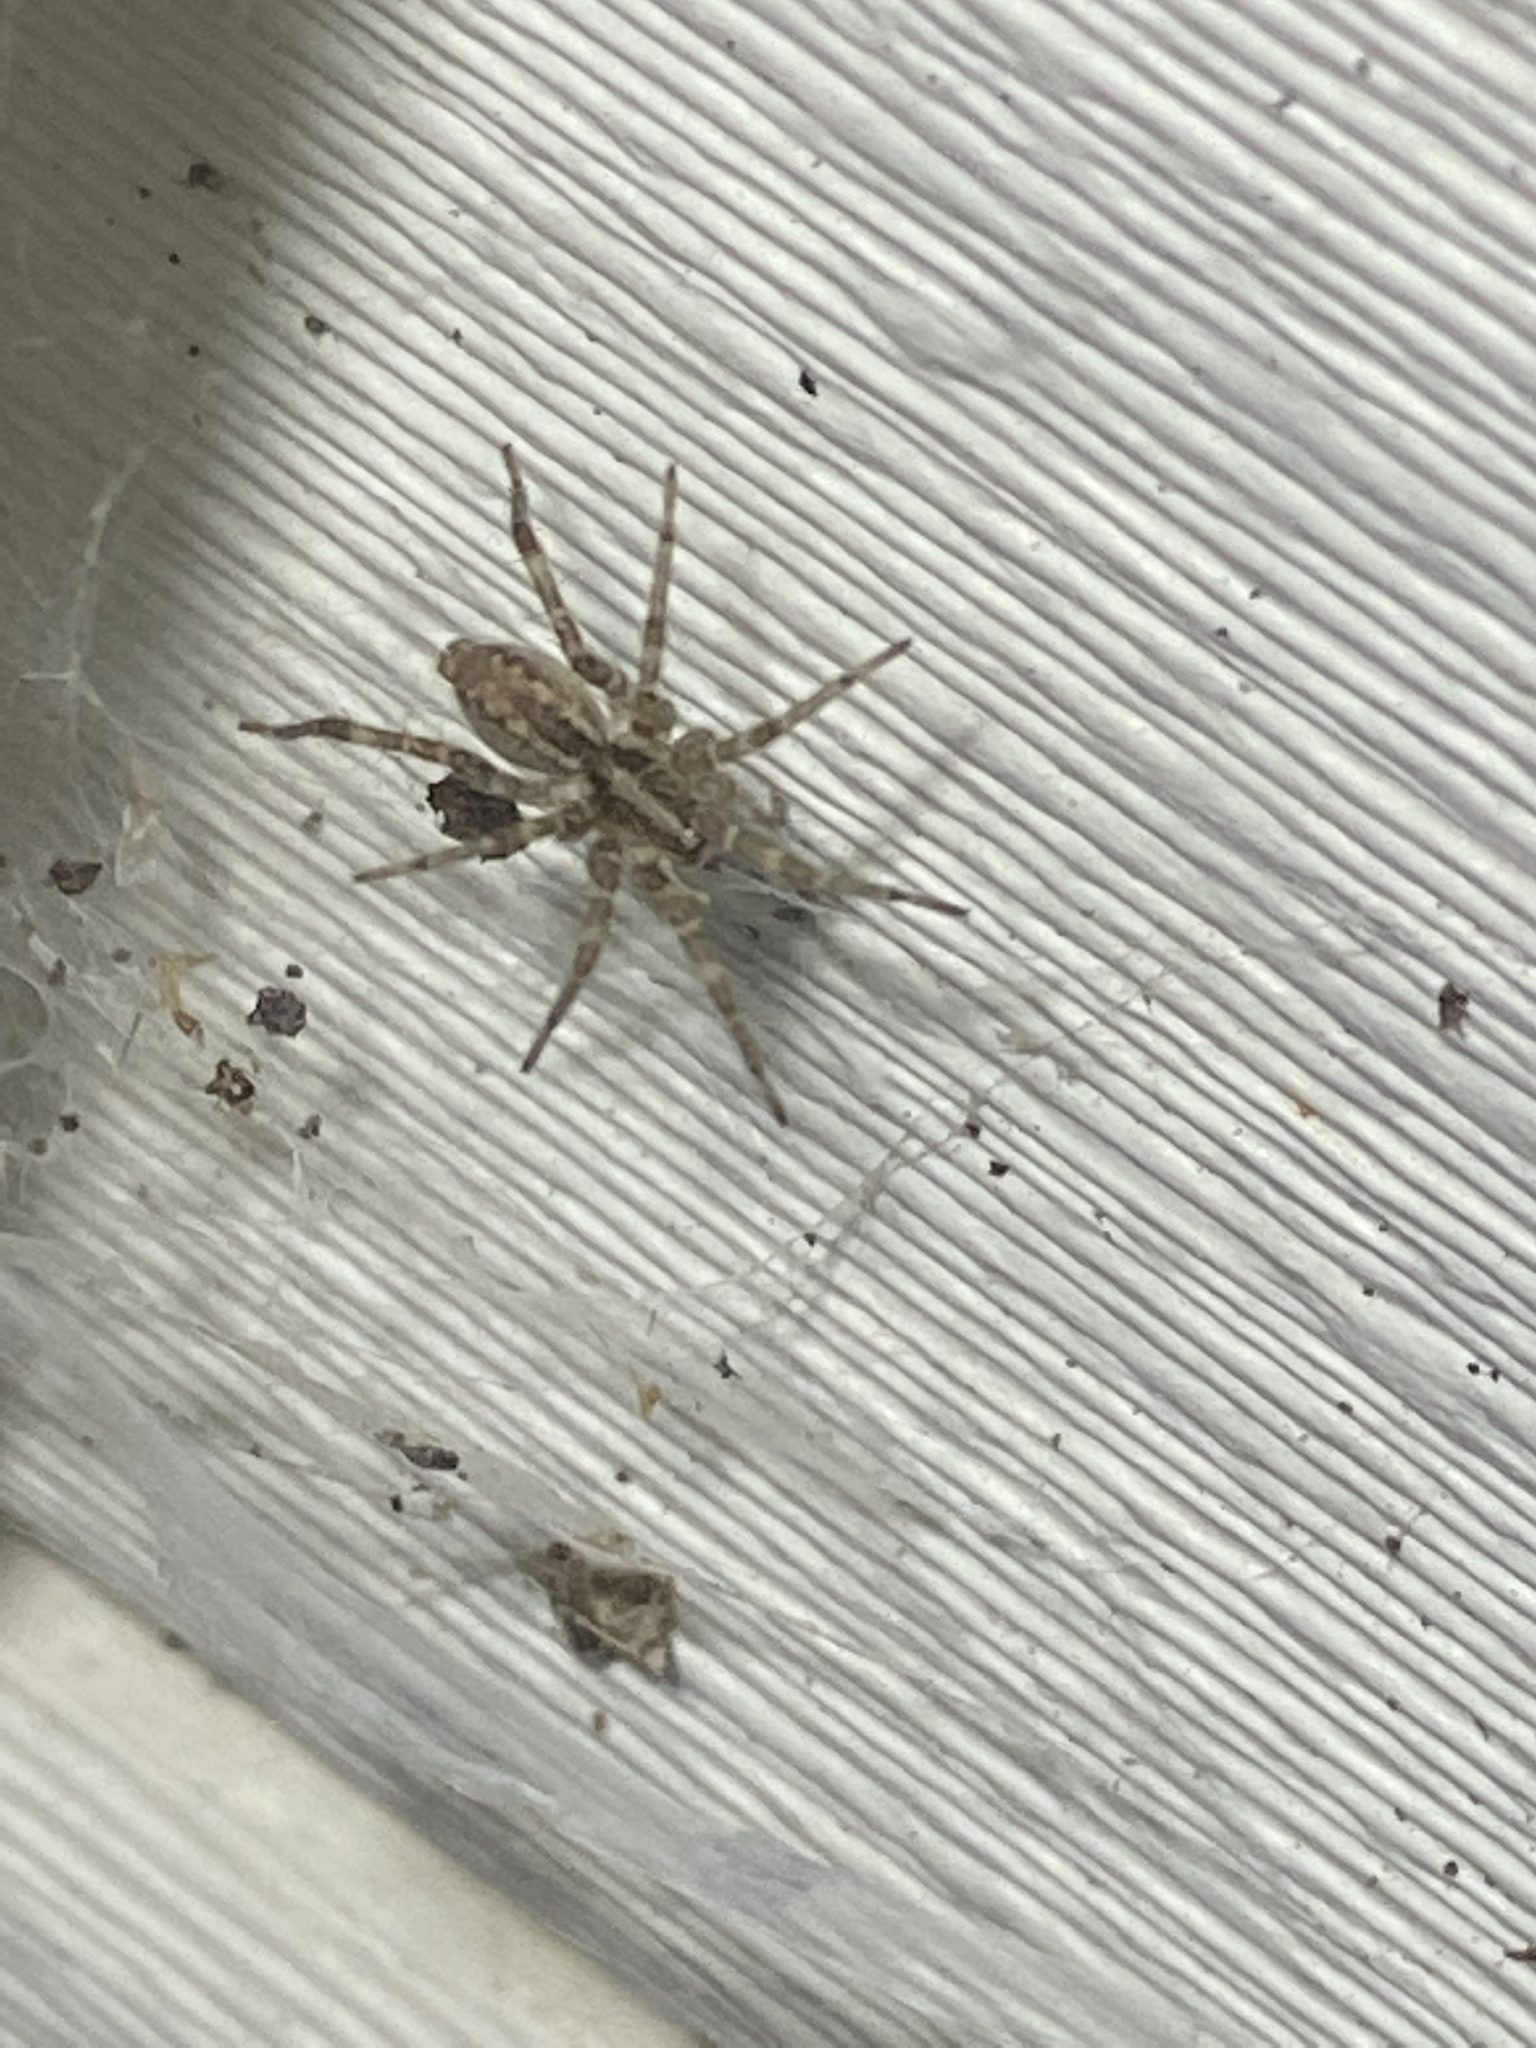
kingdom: Animalia
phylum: Arthropoda
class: Arachnida
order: Araneae
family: Agelenidae
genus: Barronopsis
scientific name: Barronopsis texana
